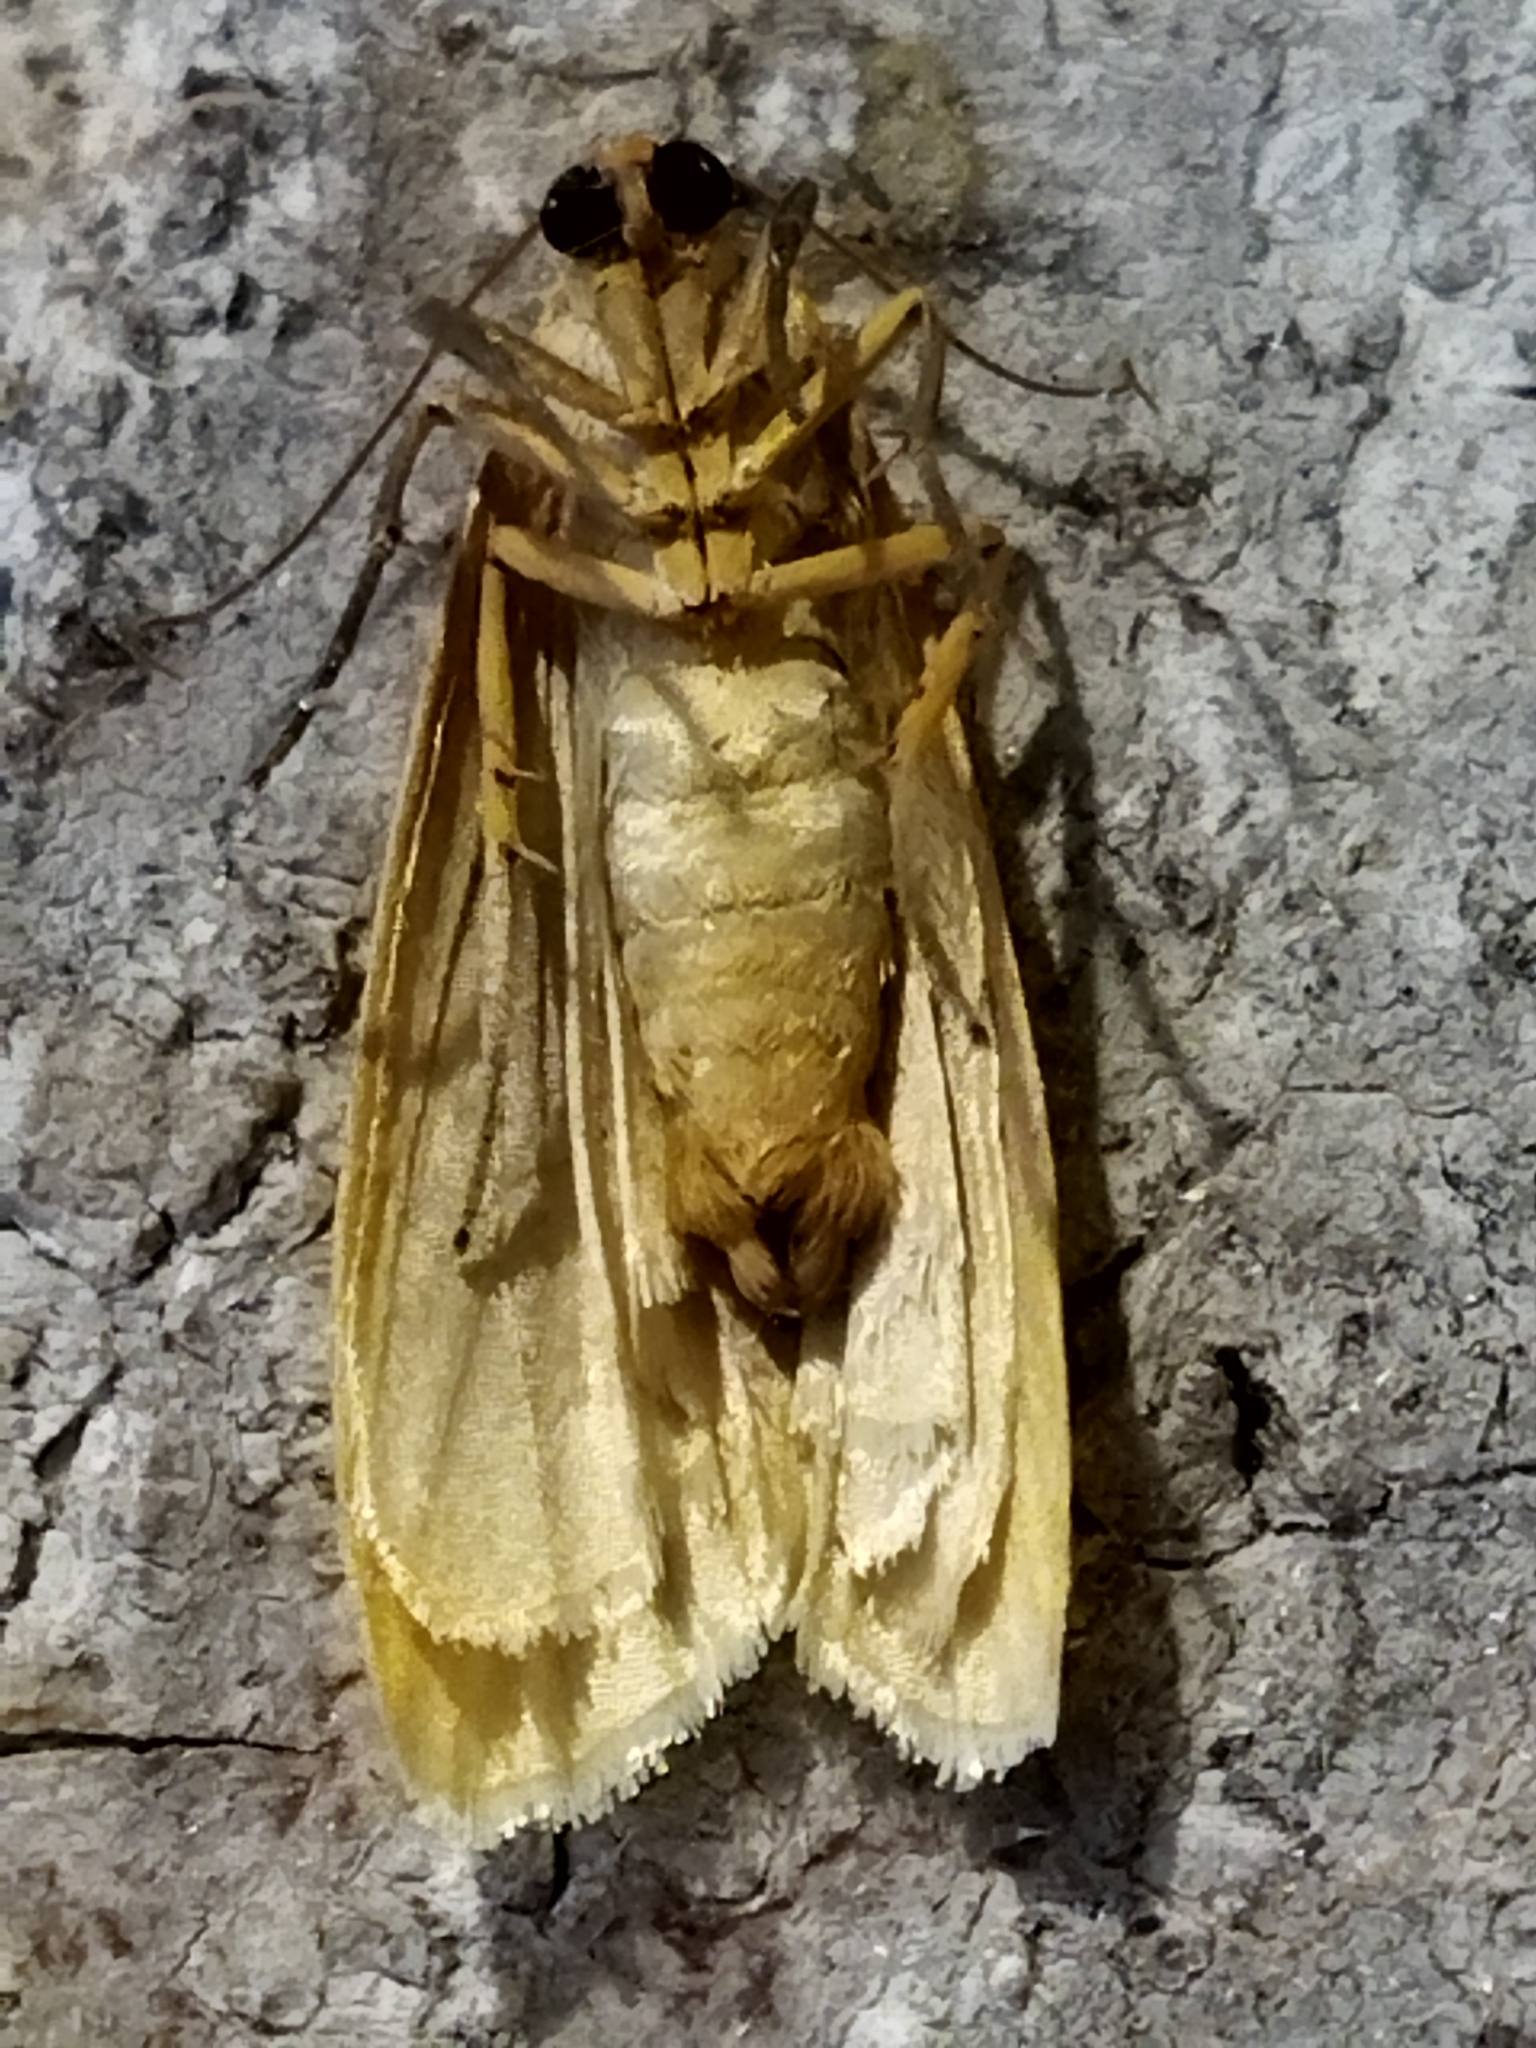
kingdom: Animalia
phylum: Arthropoda
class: Insecta
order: Lepidoptera
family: Erebidae
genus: Eilema
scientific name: Eilema caniola
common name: Hoary footman
